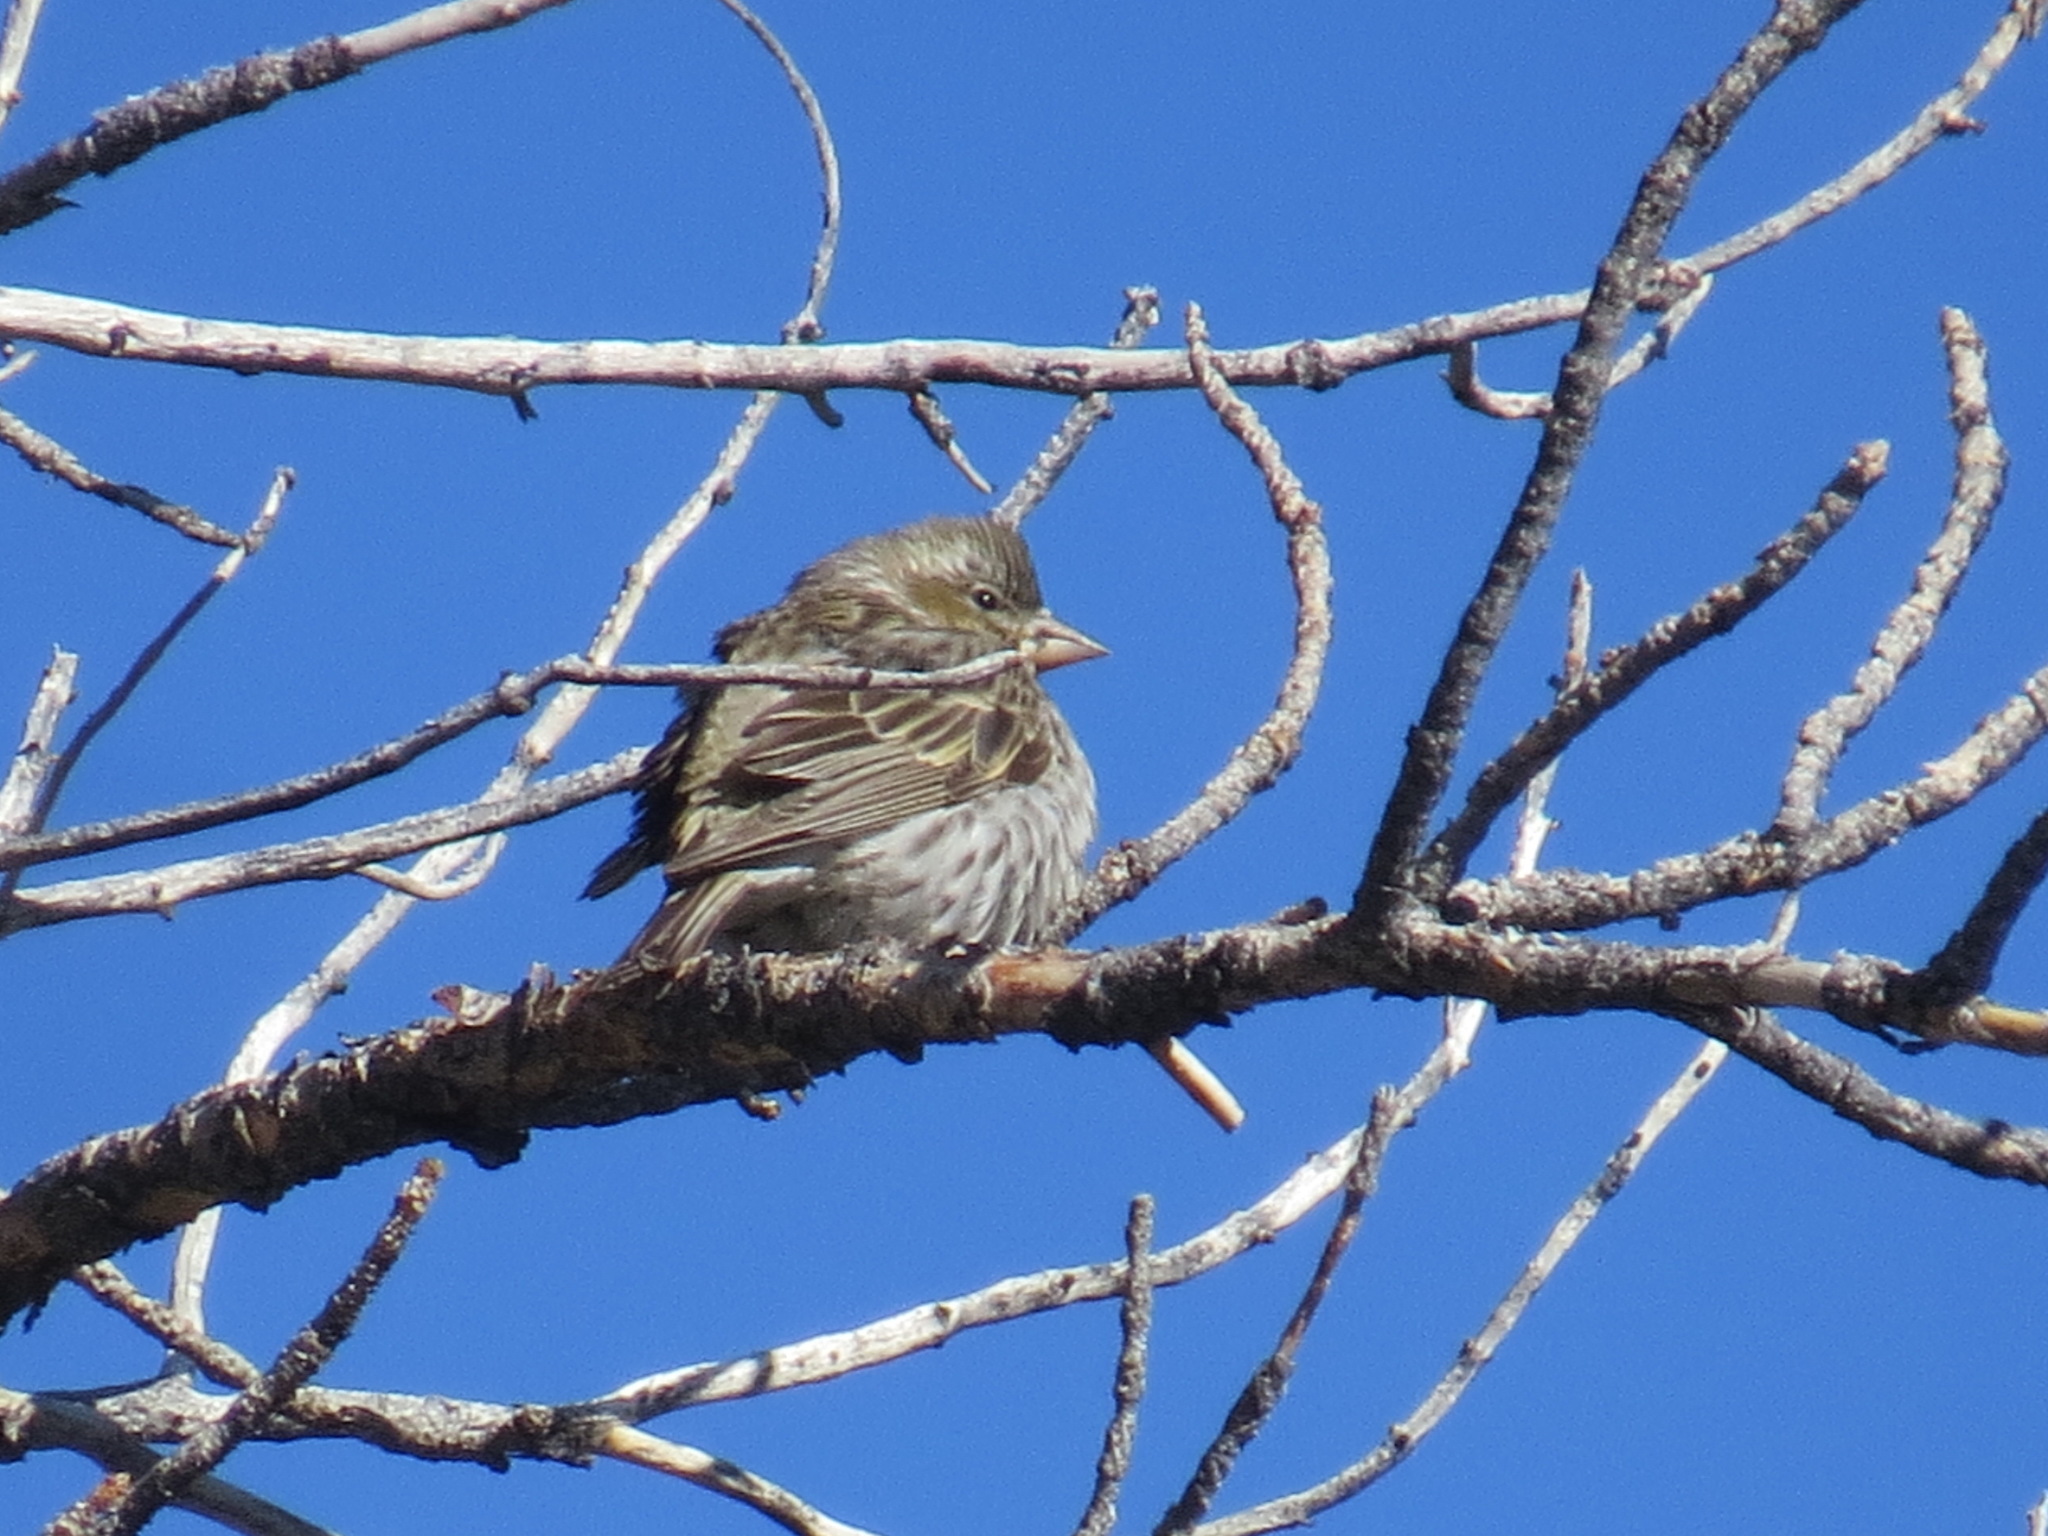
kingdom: Animalia
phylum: Chordata
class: Aves
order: Passeriformes
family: Fringillidae
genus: Haemorhous
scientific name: Haemorhous cassinii
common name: Cassin's finch
